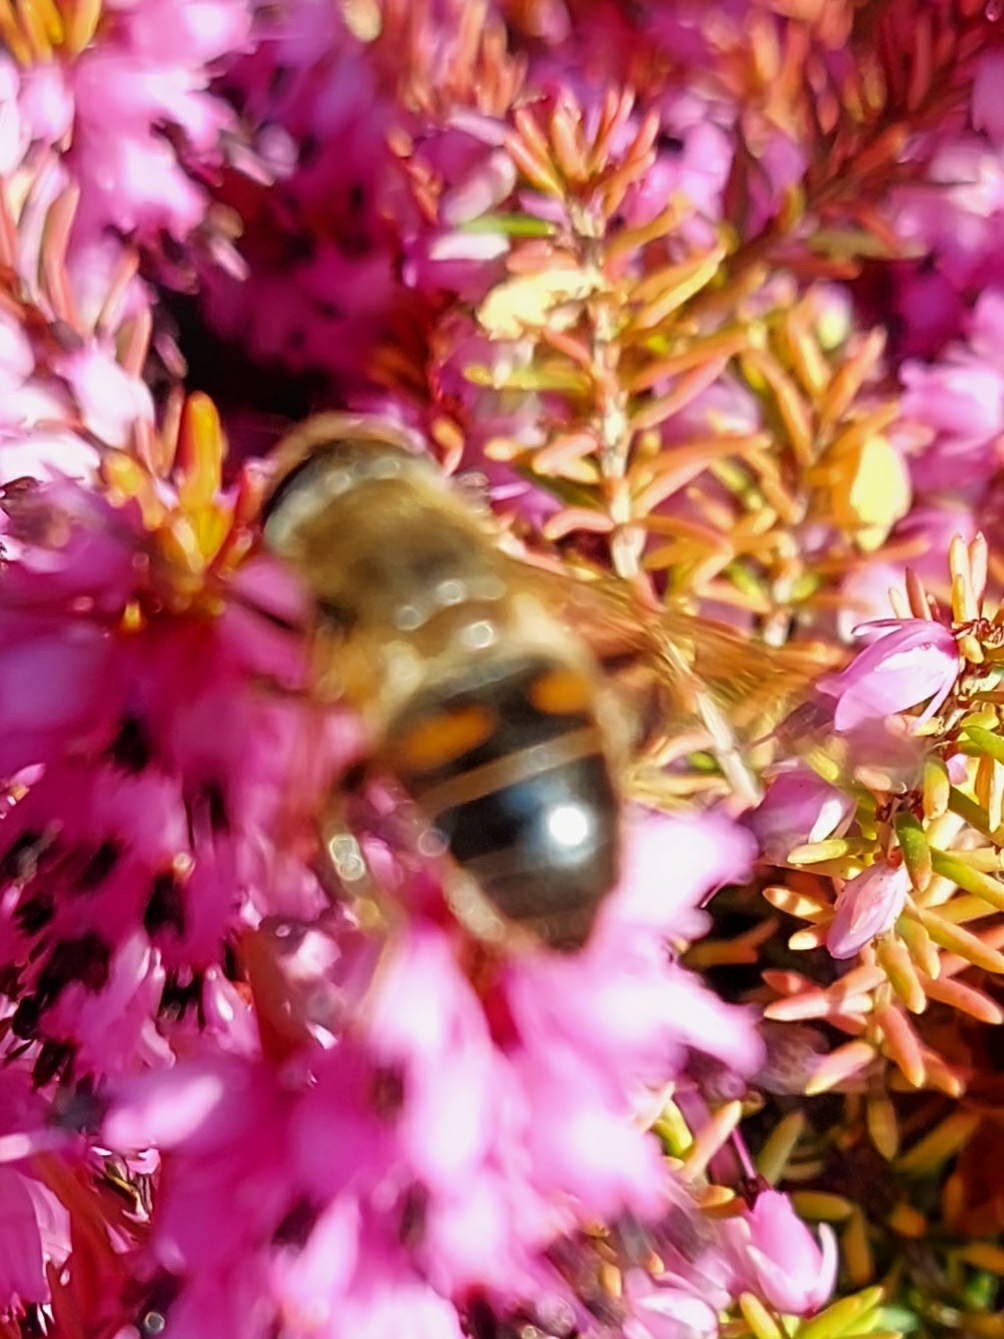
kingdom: Animalia
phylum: Arthropoda
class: Insecta
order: Diptera
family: Syrphidae
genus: Eristalis
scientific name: Eristalis tenax
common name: Drone fly
